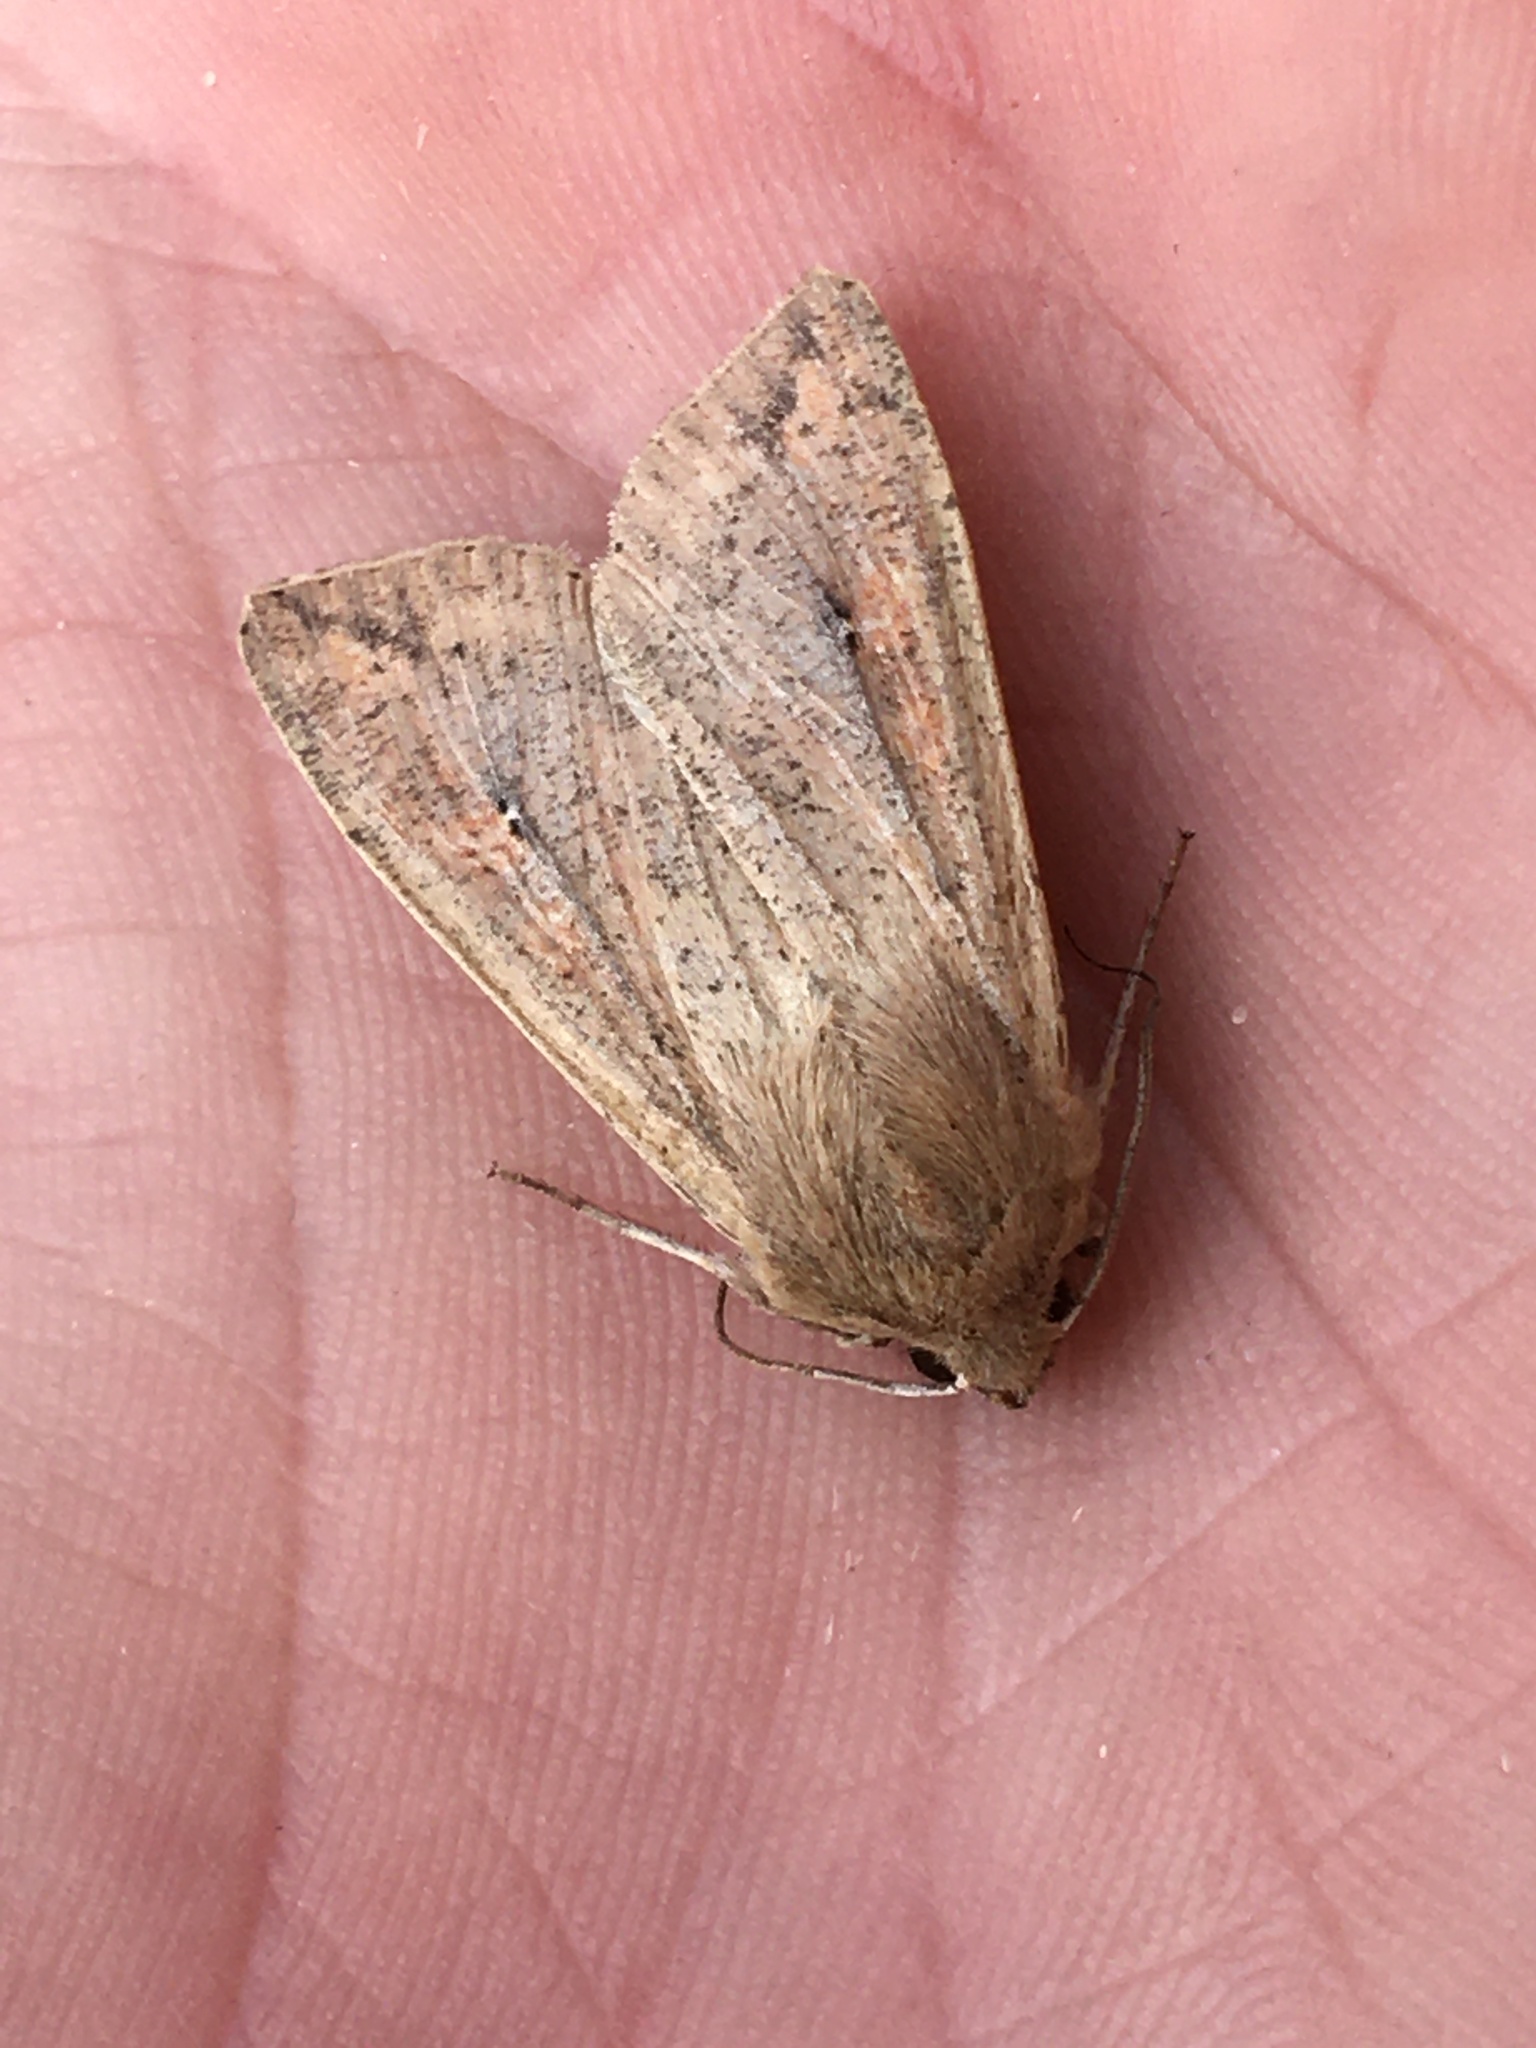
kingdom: Animalia
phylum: Arthropoda
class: Insecta
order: Lepidoptera
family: Noctuidae
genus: Mythimna
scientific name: Mythimna unipuncta
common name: White-speck
